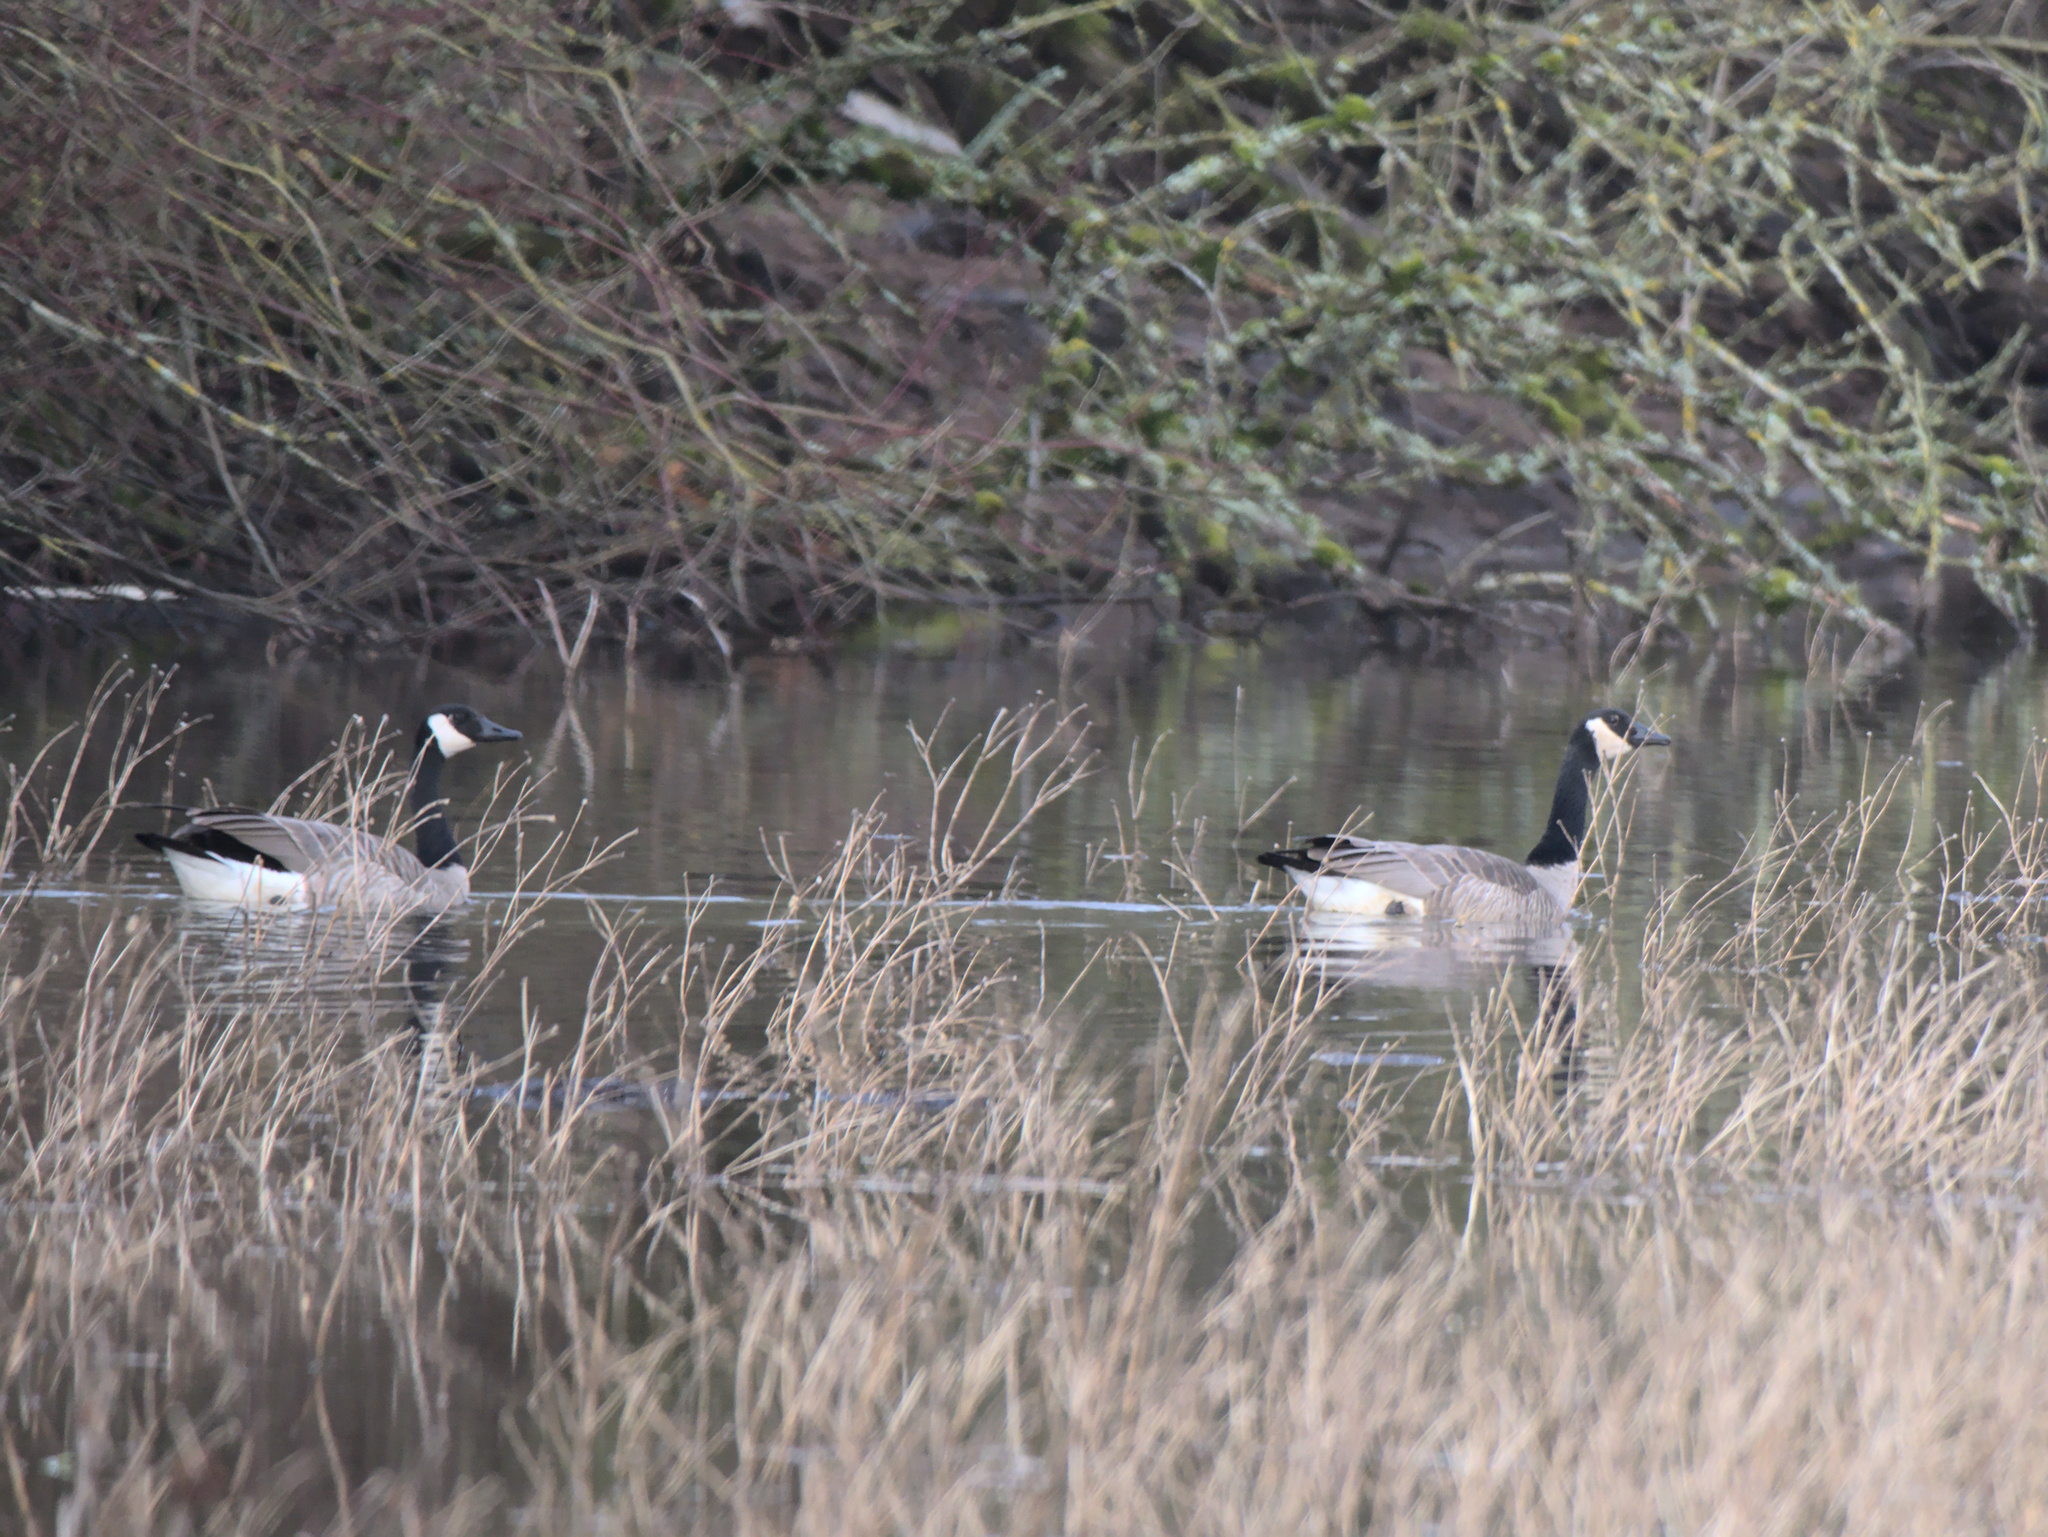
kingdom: Animalia
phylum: Chordata
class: Aves
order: Anseriformes
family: Anatidae
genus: Branta
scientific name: Branta canadensis
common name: Canada goose
